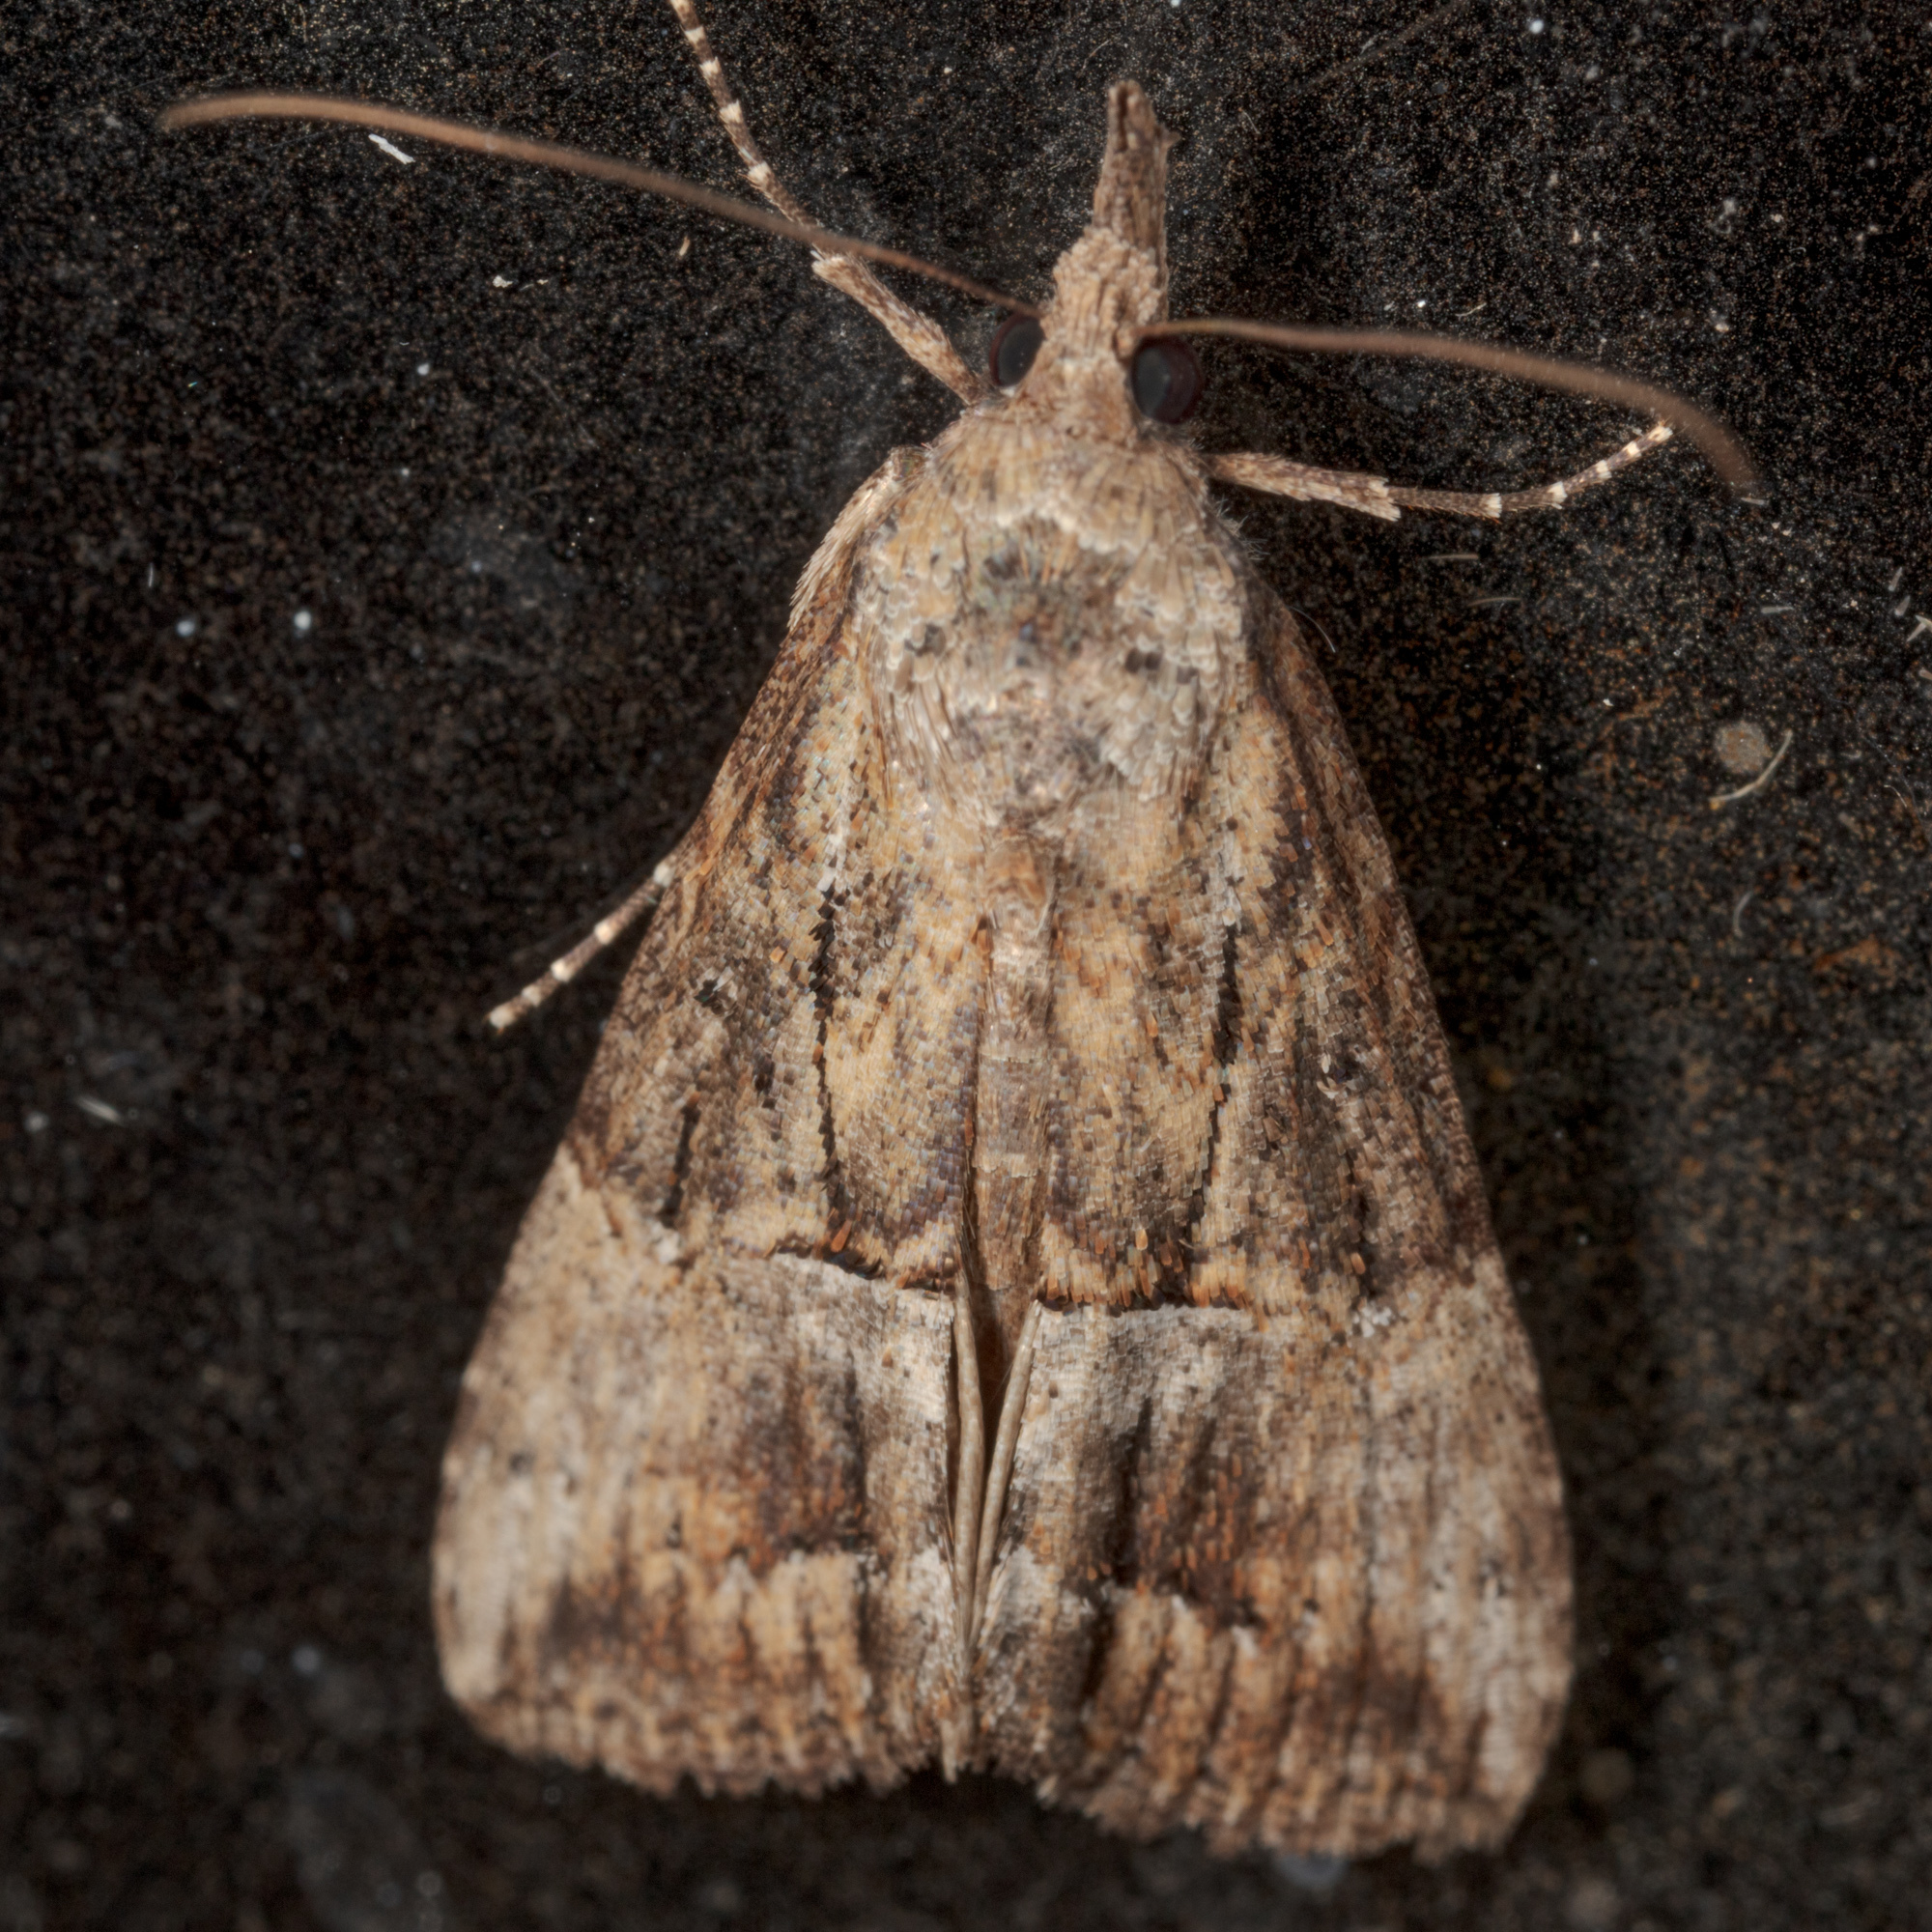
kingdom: Animalia
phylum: Arthropoda
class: Insecta
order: Lepidoptera
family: Erebidae
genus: Hypena
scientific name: Hypena scabra
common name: Green cloverworm
